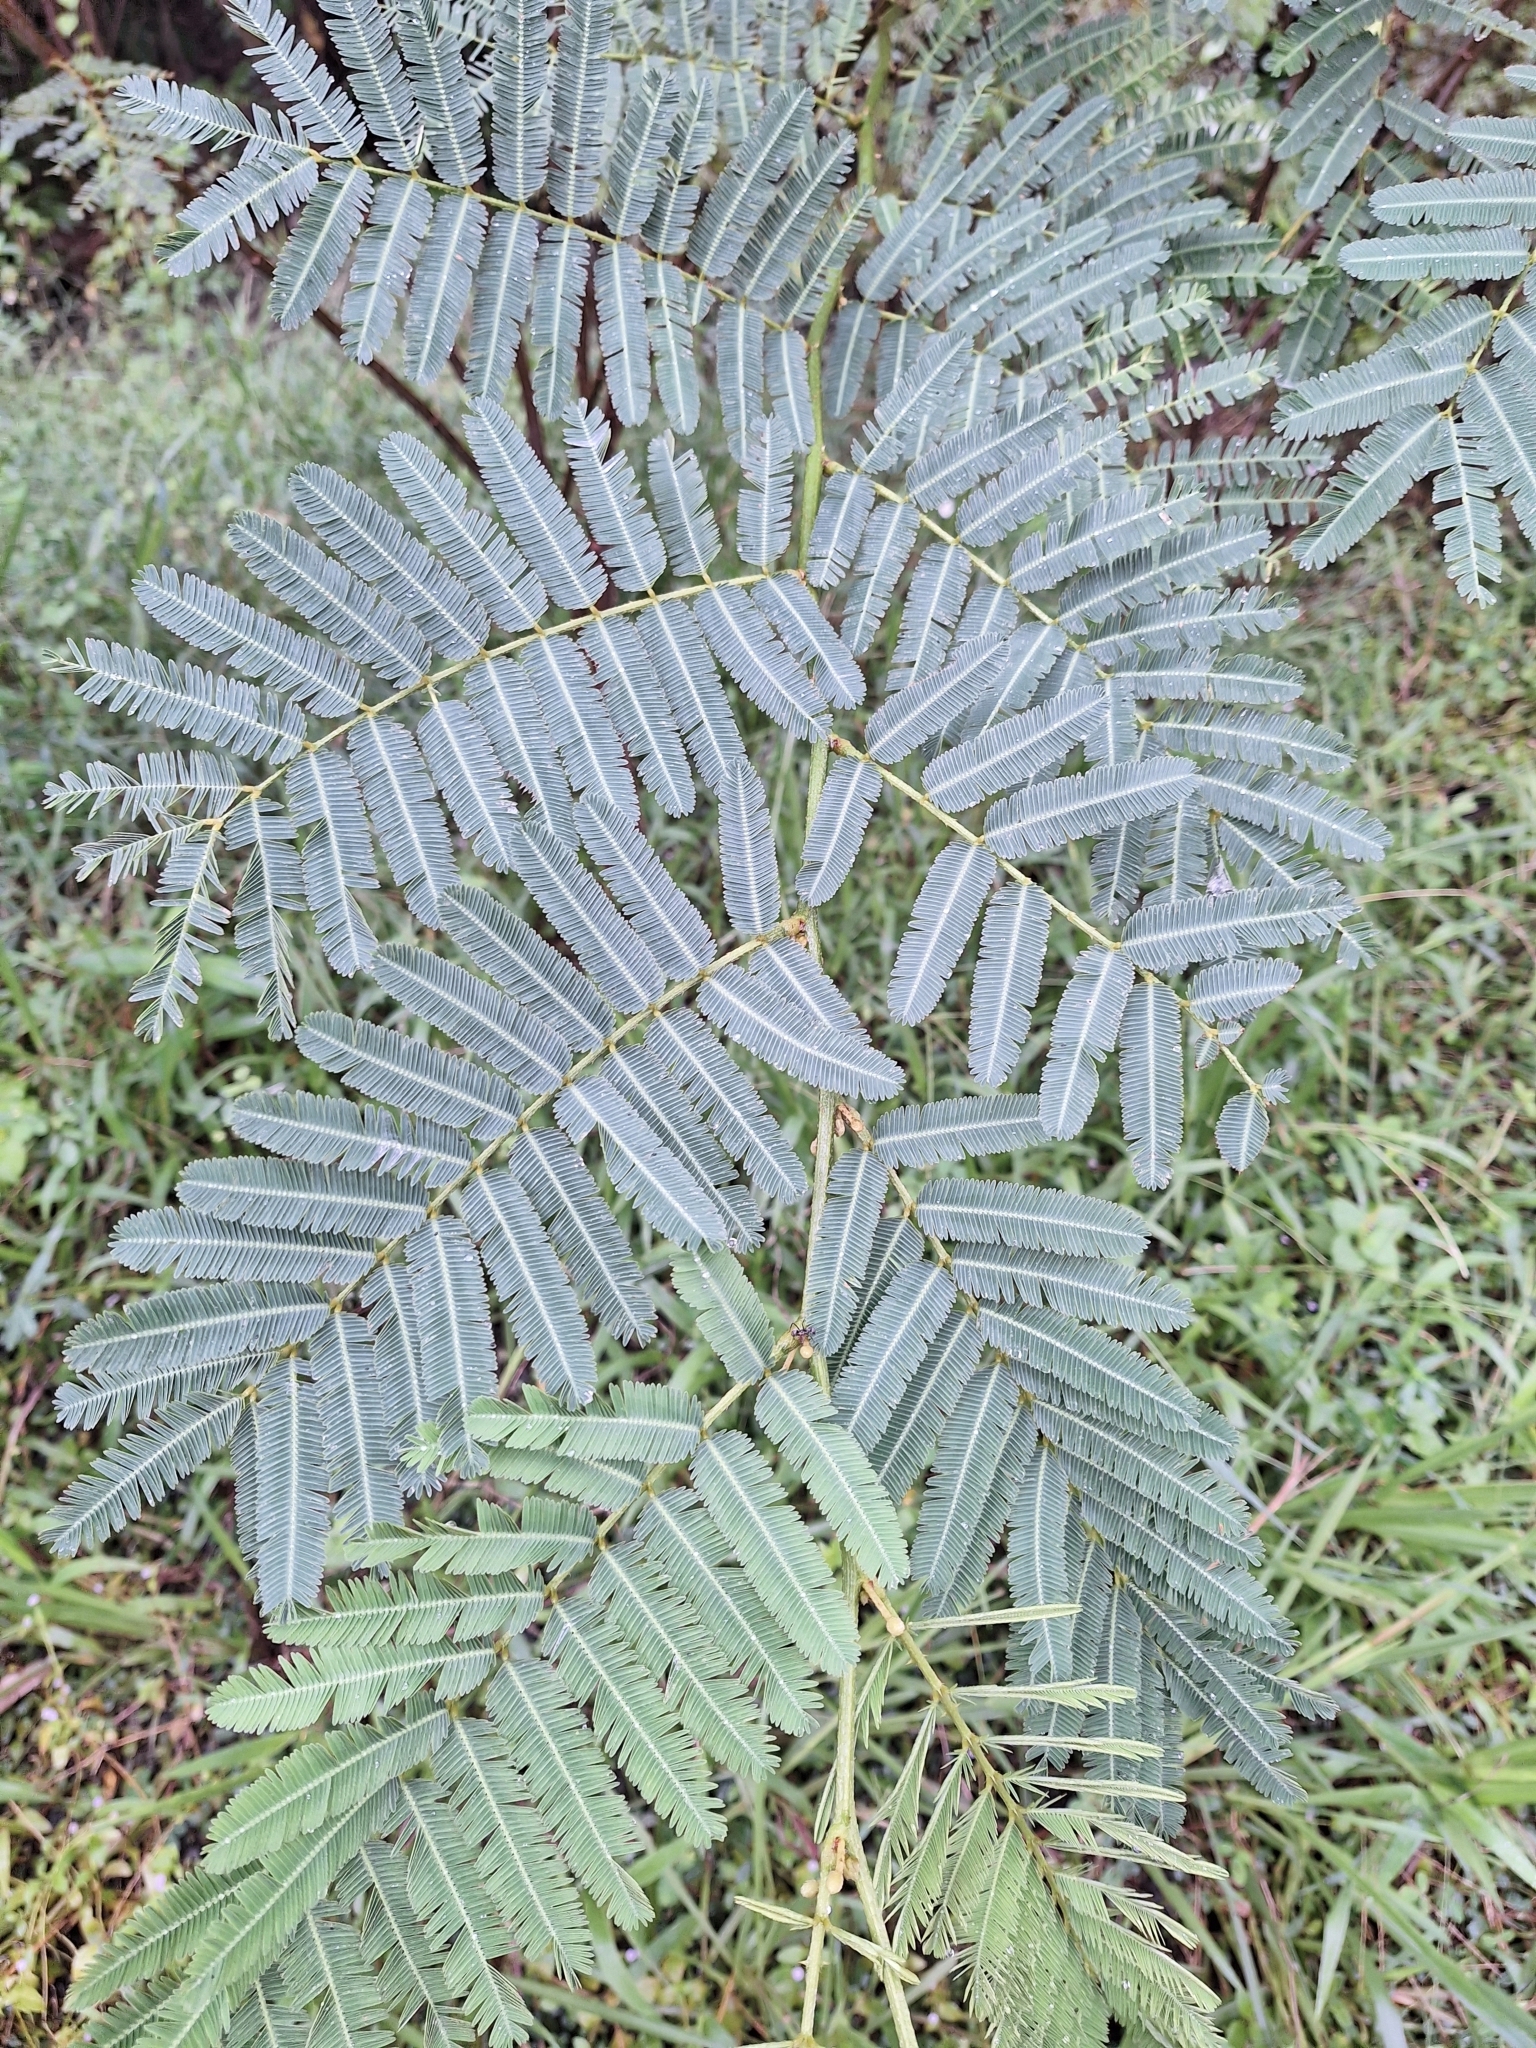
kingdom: Plantae
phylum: Tracheophyta
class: Magnoliopsida
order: Fabales
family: Fabaceae
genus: Mimosa
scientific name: Mimosa pigra
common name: Black mimosa
